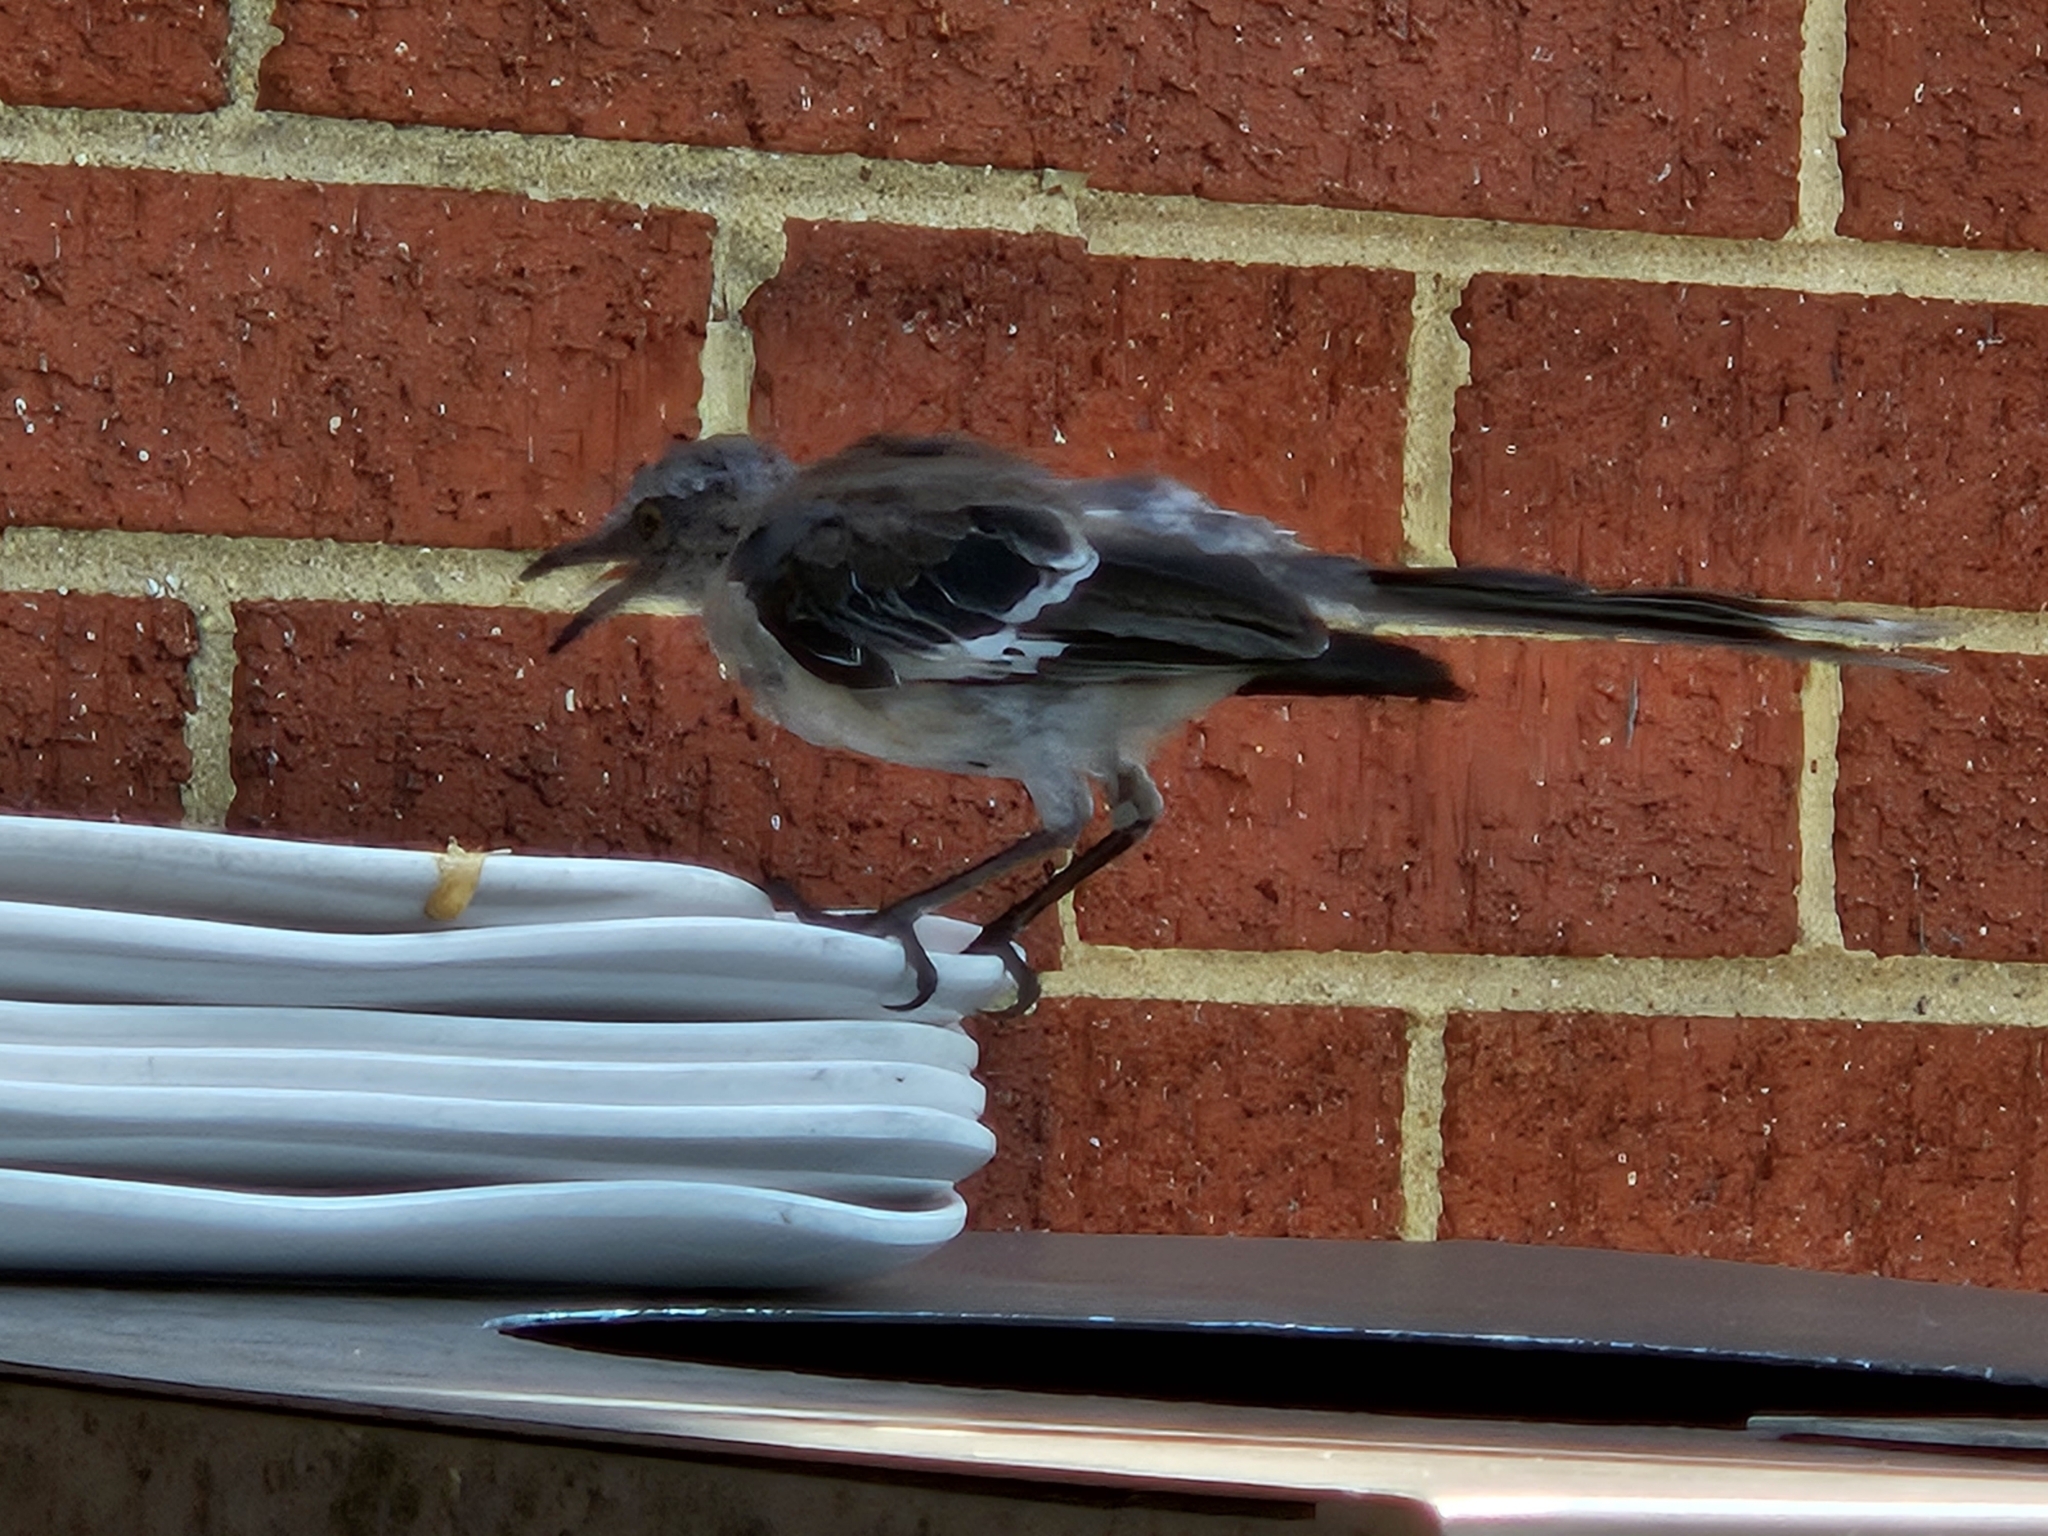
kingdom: Animalia
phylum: Chordata
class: Aves
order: Passeriformes
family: Mimidae
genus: Mimus
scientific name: Mimus polyglottos
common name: Northern mockingbird
